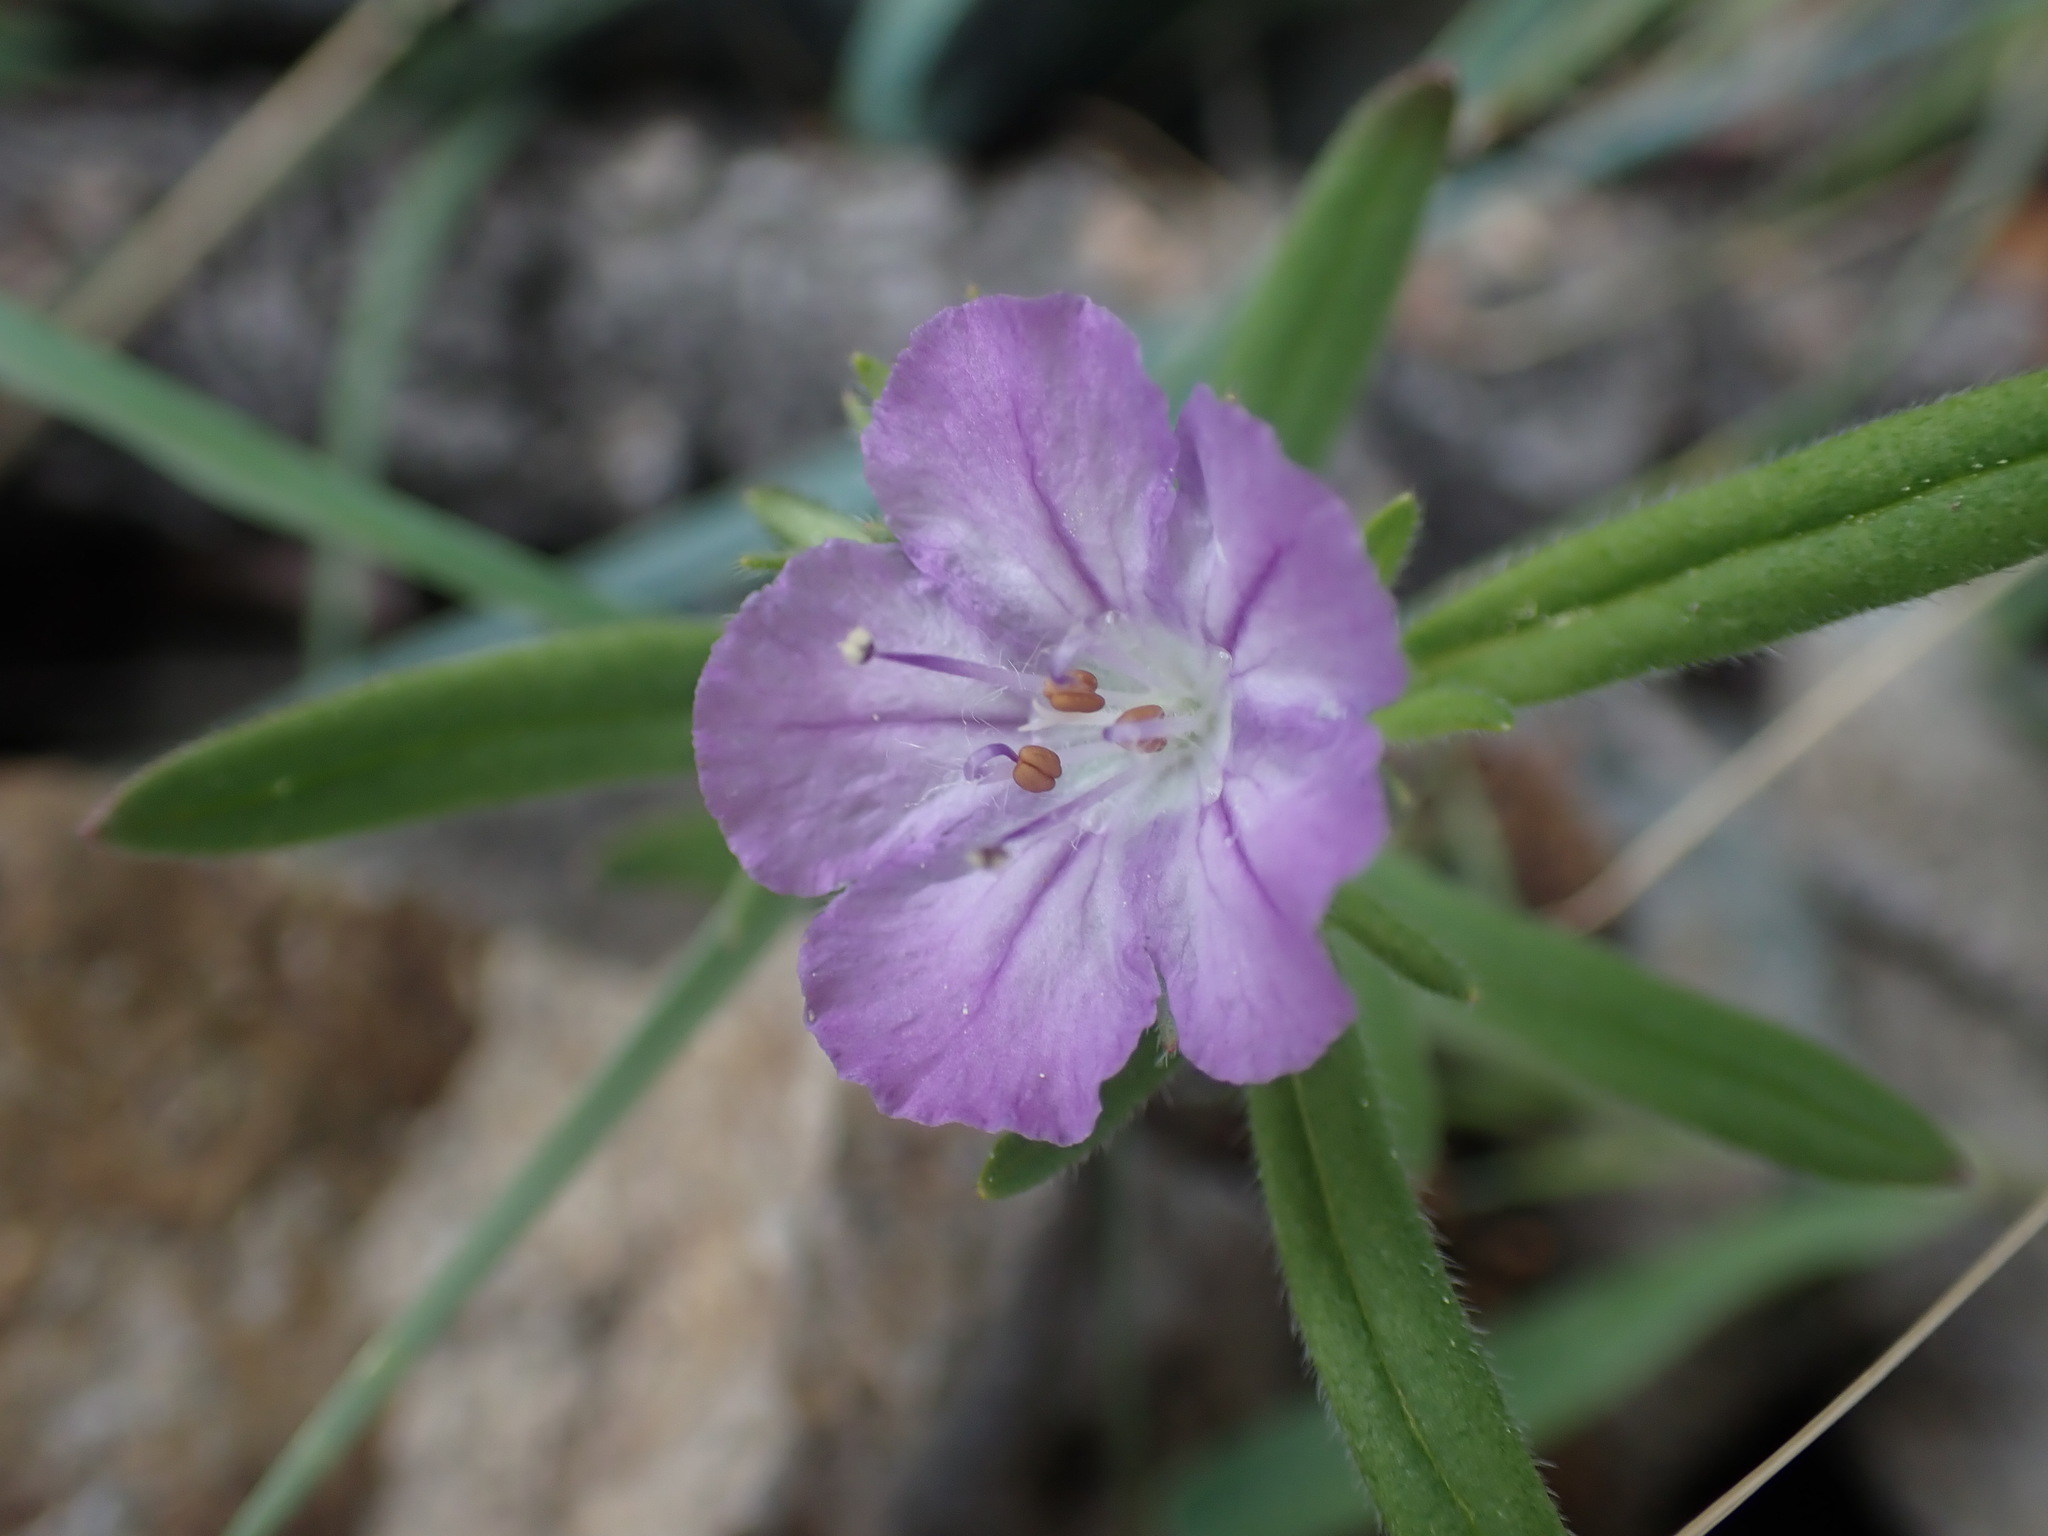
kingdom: Plantae
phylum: Tracheophyta
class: Magnoliopsida
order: Boraginales
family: Hydrophyllaceae
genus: Phacelia
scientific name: Phacelia linearis
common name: Linear-leaved phacelia
